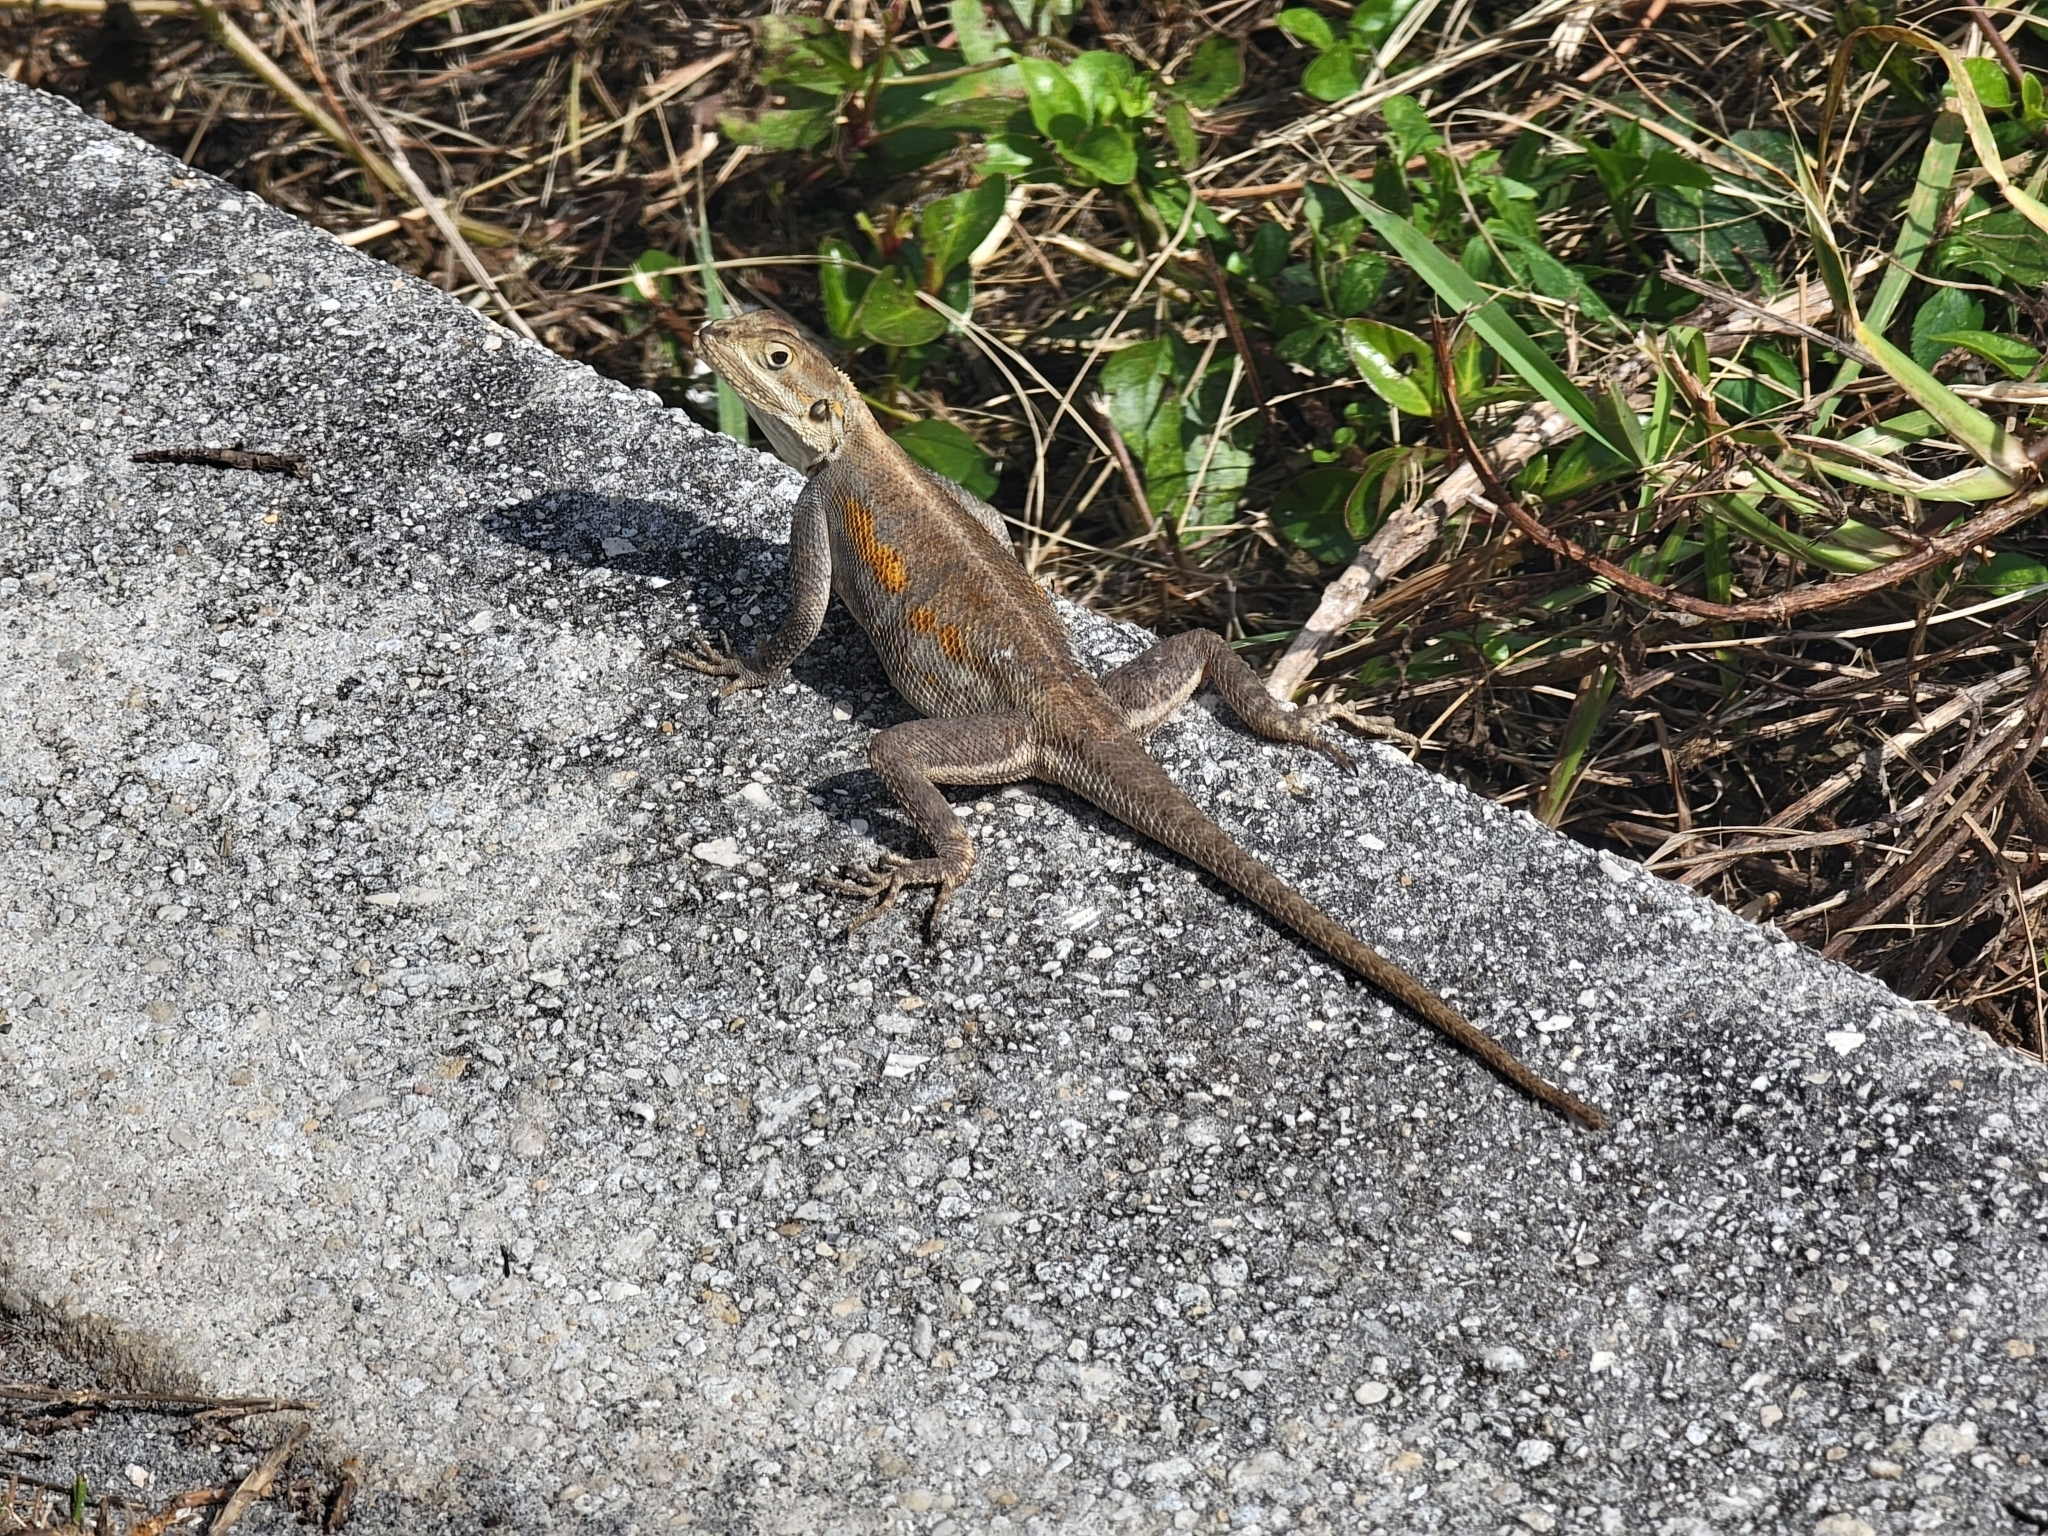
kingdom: Animalia
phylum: Chordata
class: Squamata
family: Agamidae
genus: Agama
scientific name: Agama picticauda
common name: Red-headed agama
